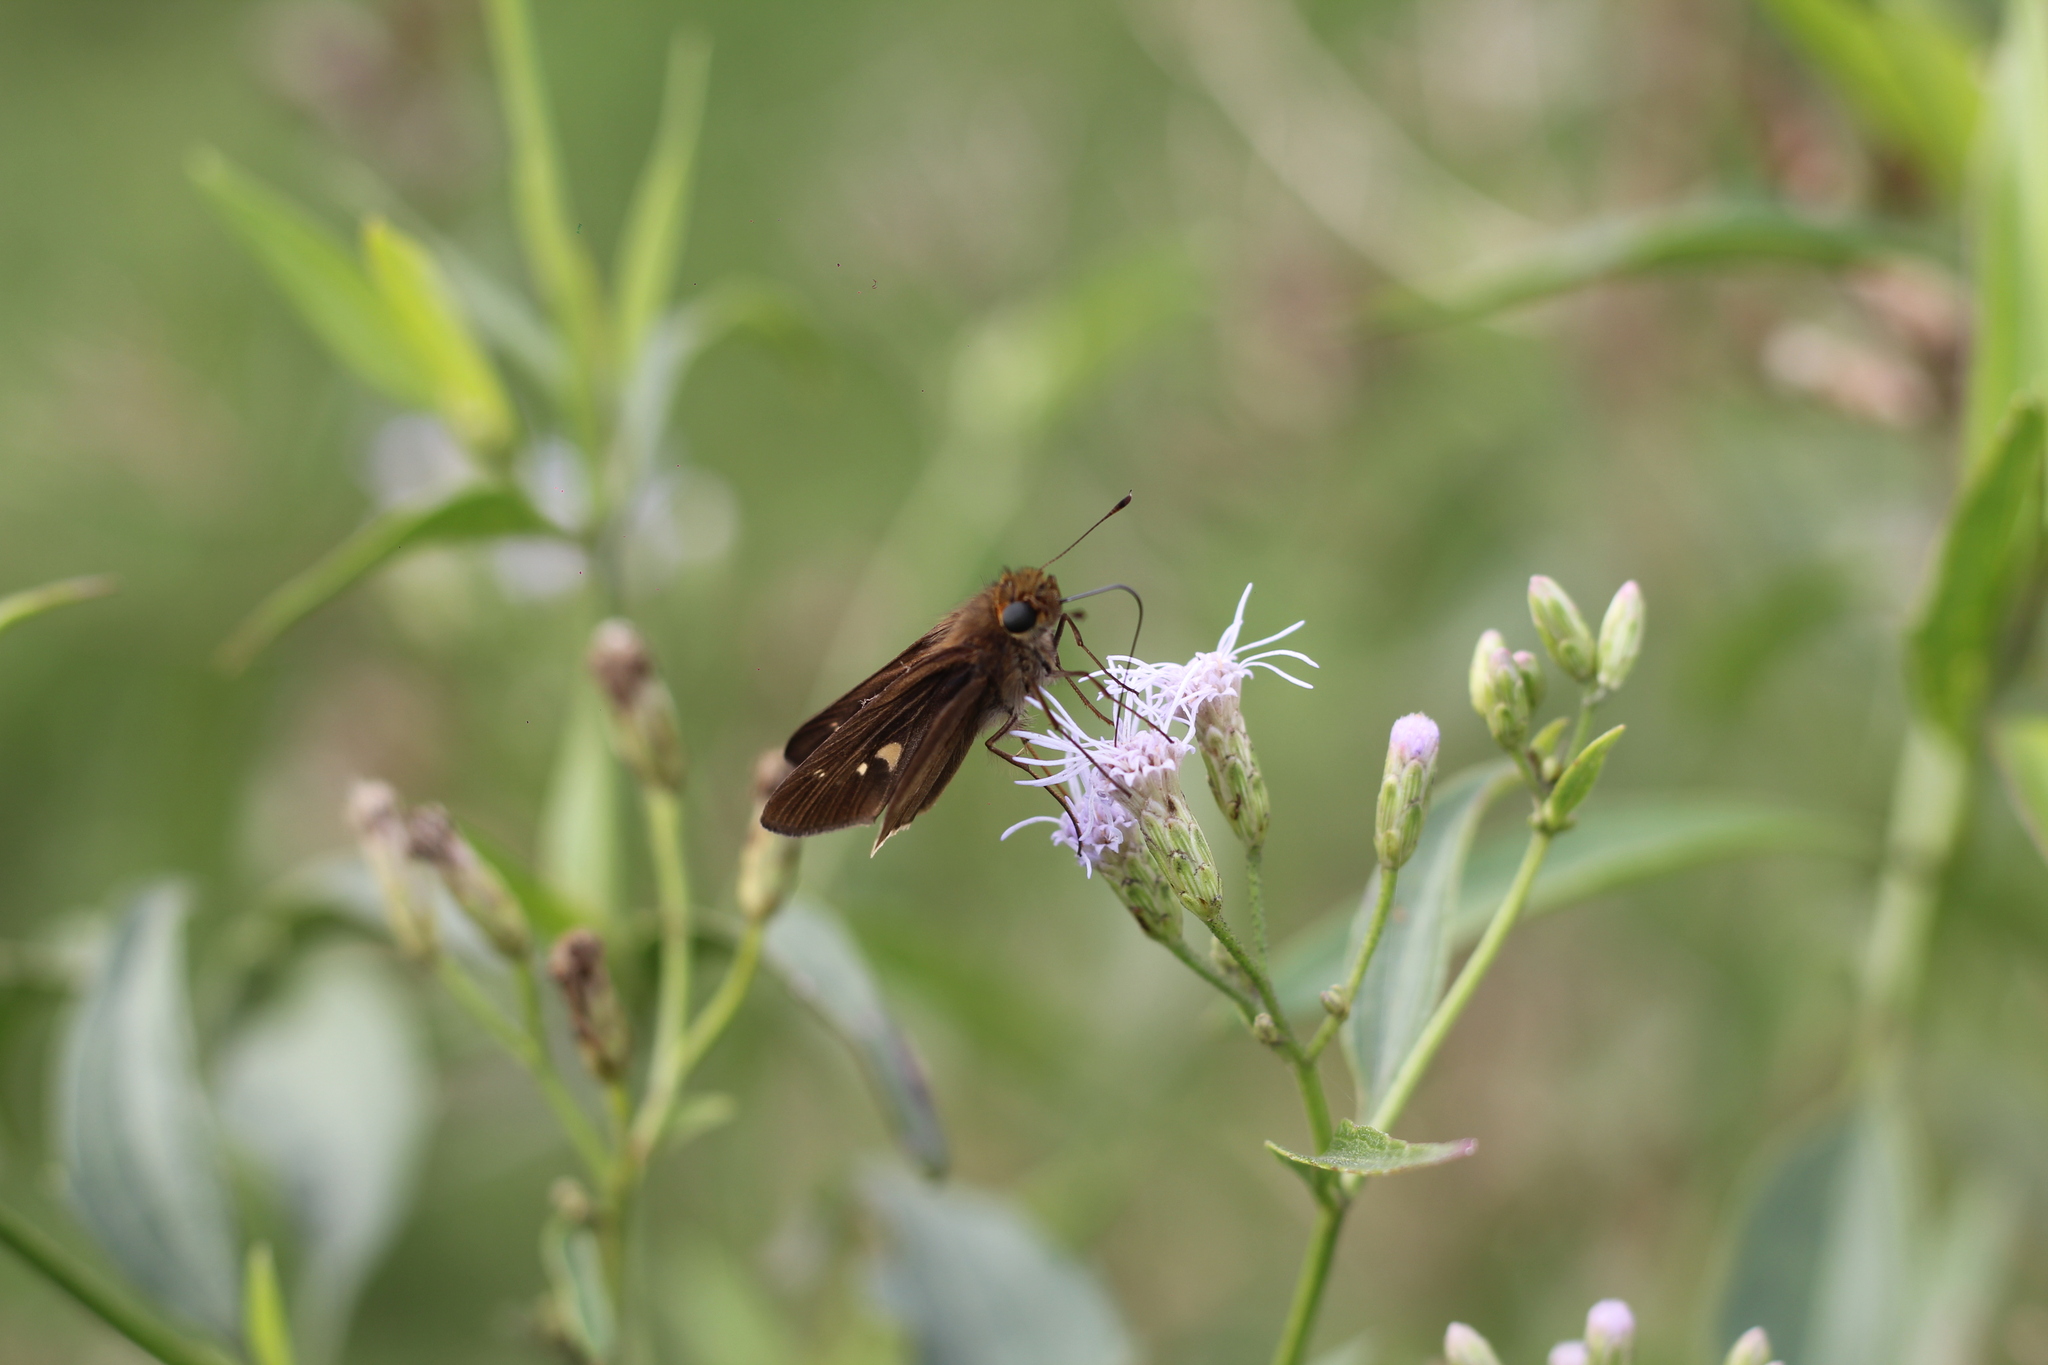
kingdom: Animalia
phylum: Arthropoda
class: Insecta
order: Lepidoptera
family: Hesperiidae
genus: Panoquina
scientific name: Panoquina ocola
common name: Ocola skipper
